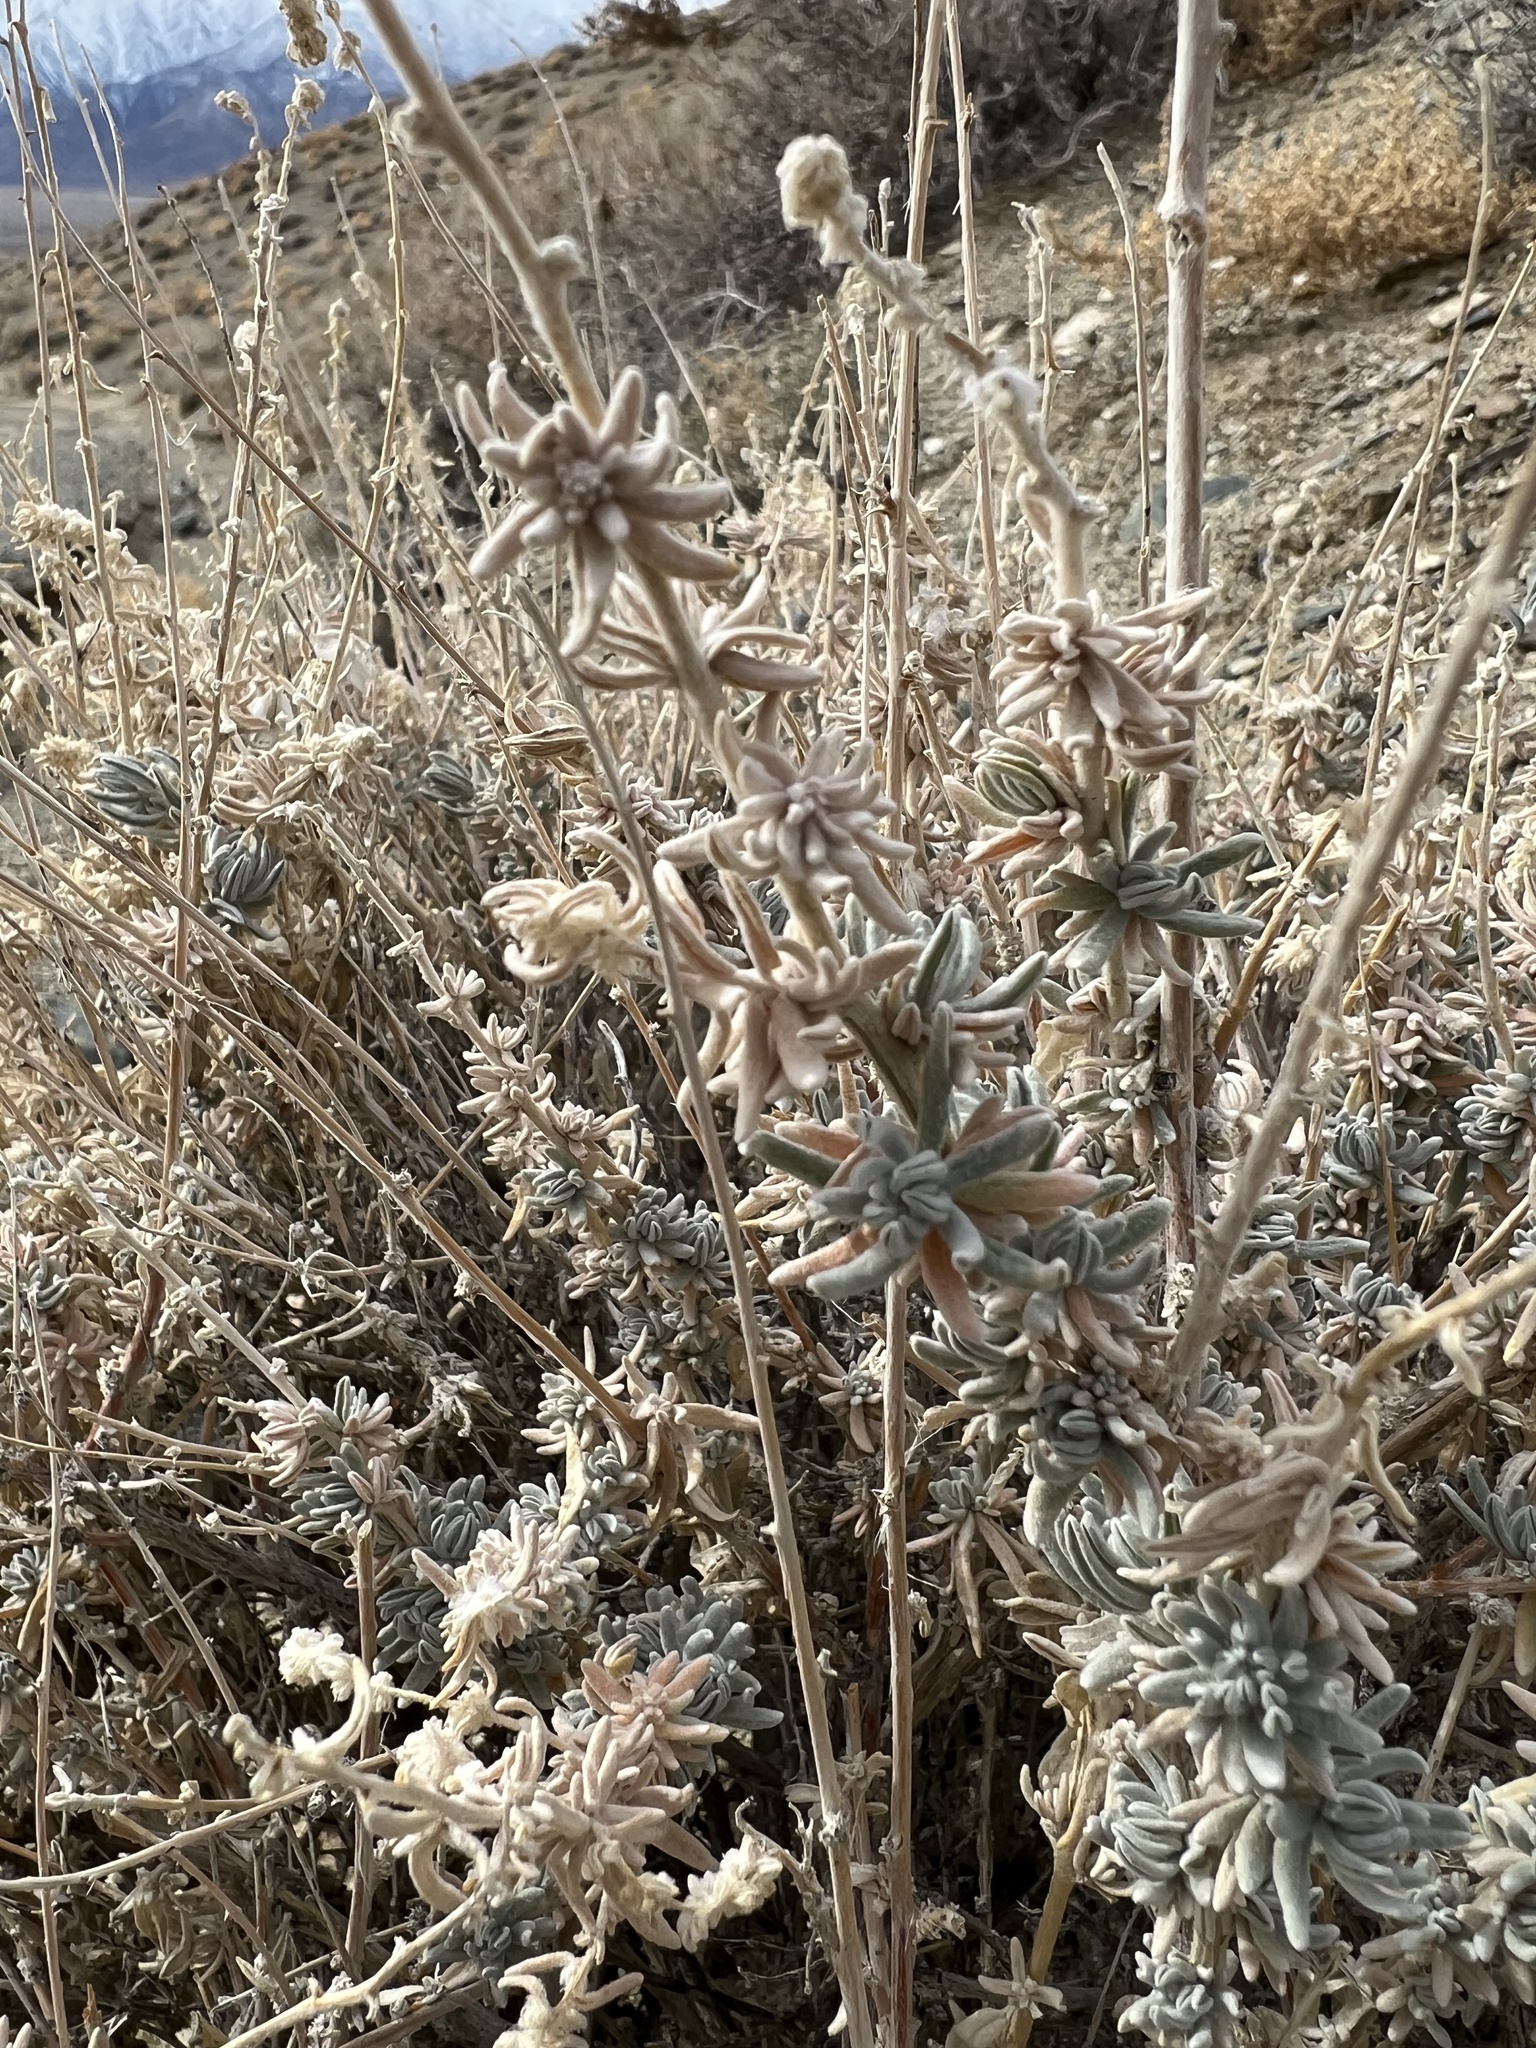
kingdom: Plantae
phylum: Tracheophyta
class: Magnoliopsida
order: Caryophyllales
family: Amaranthaceae
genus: Krascheninnikovia
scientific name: Krascheninnikovia lanata
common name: Winterfat
